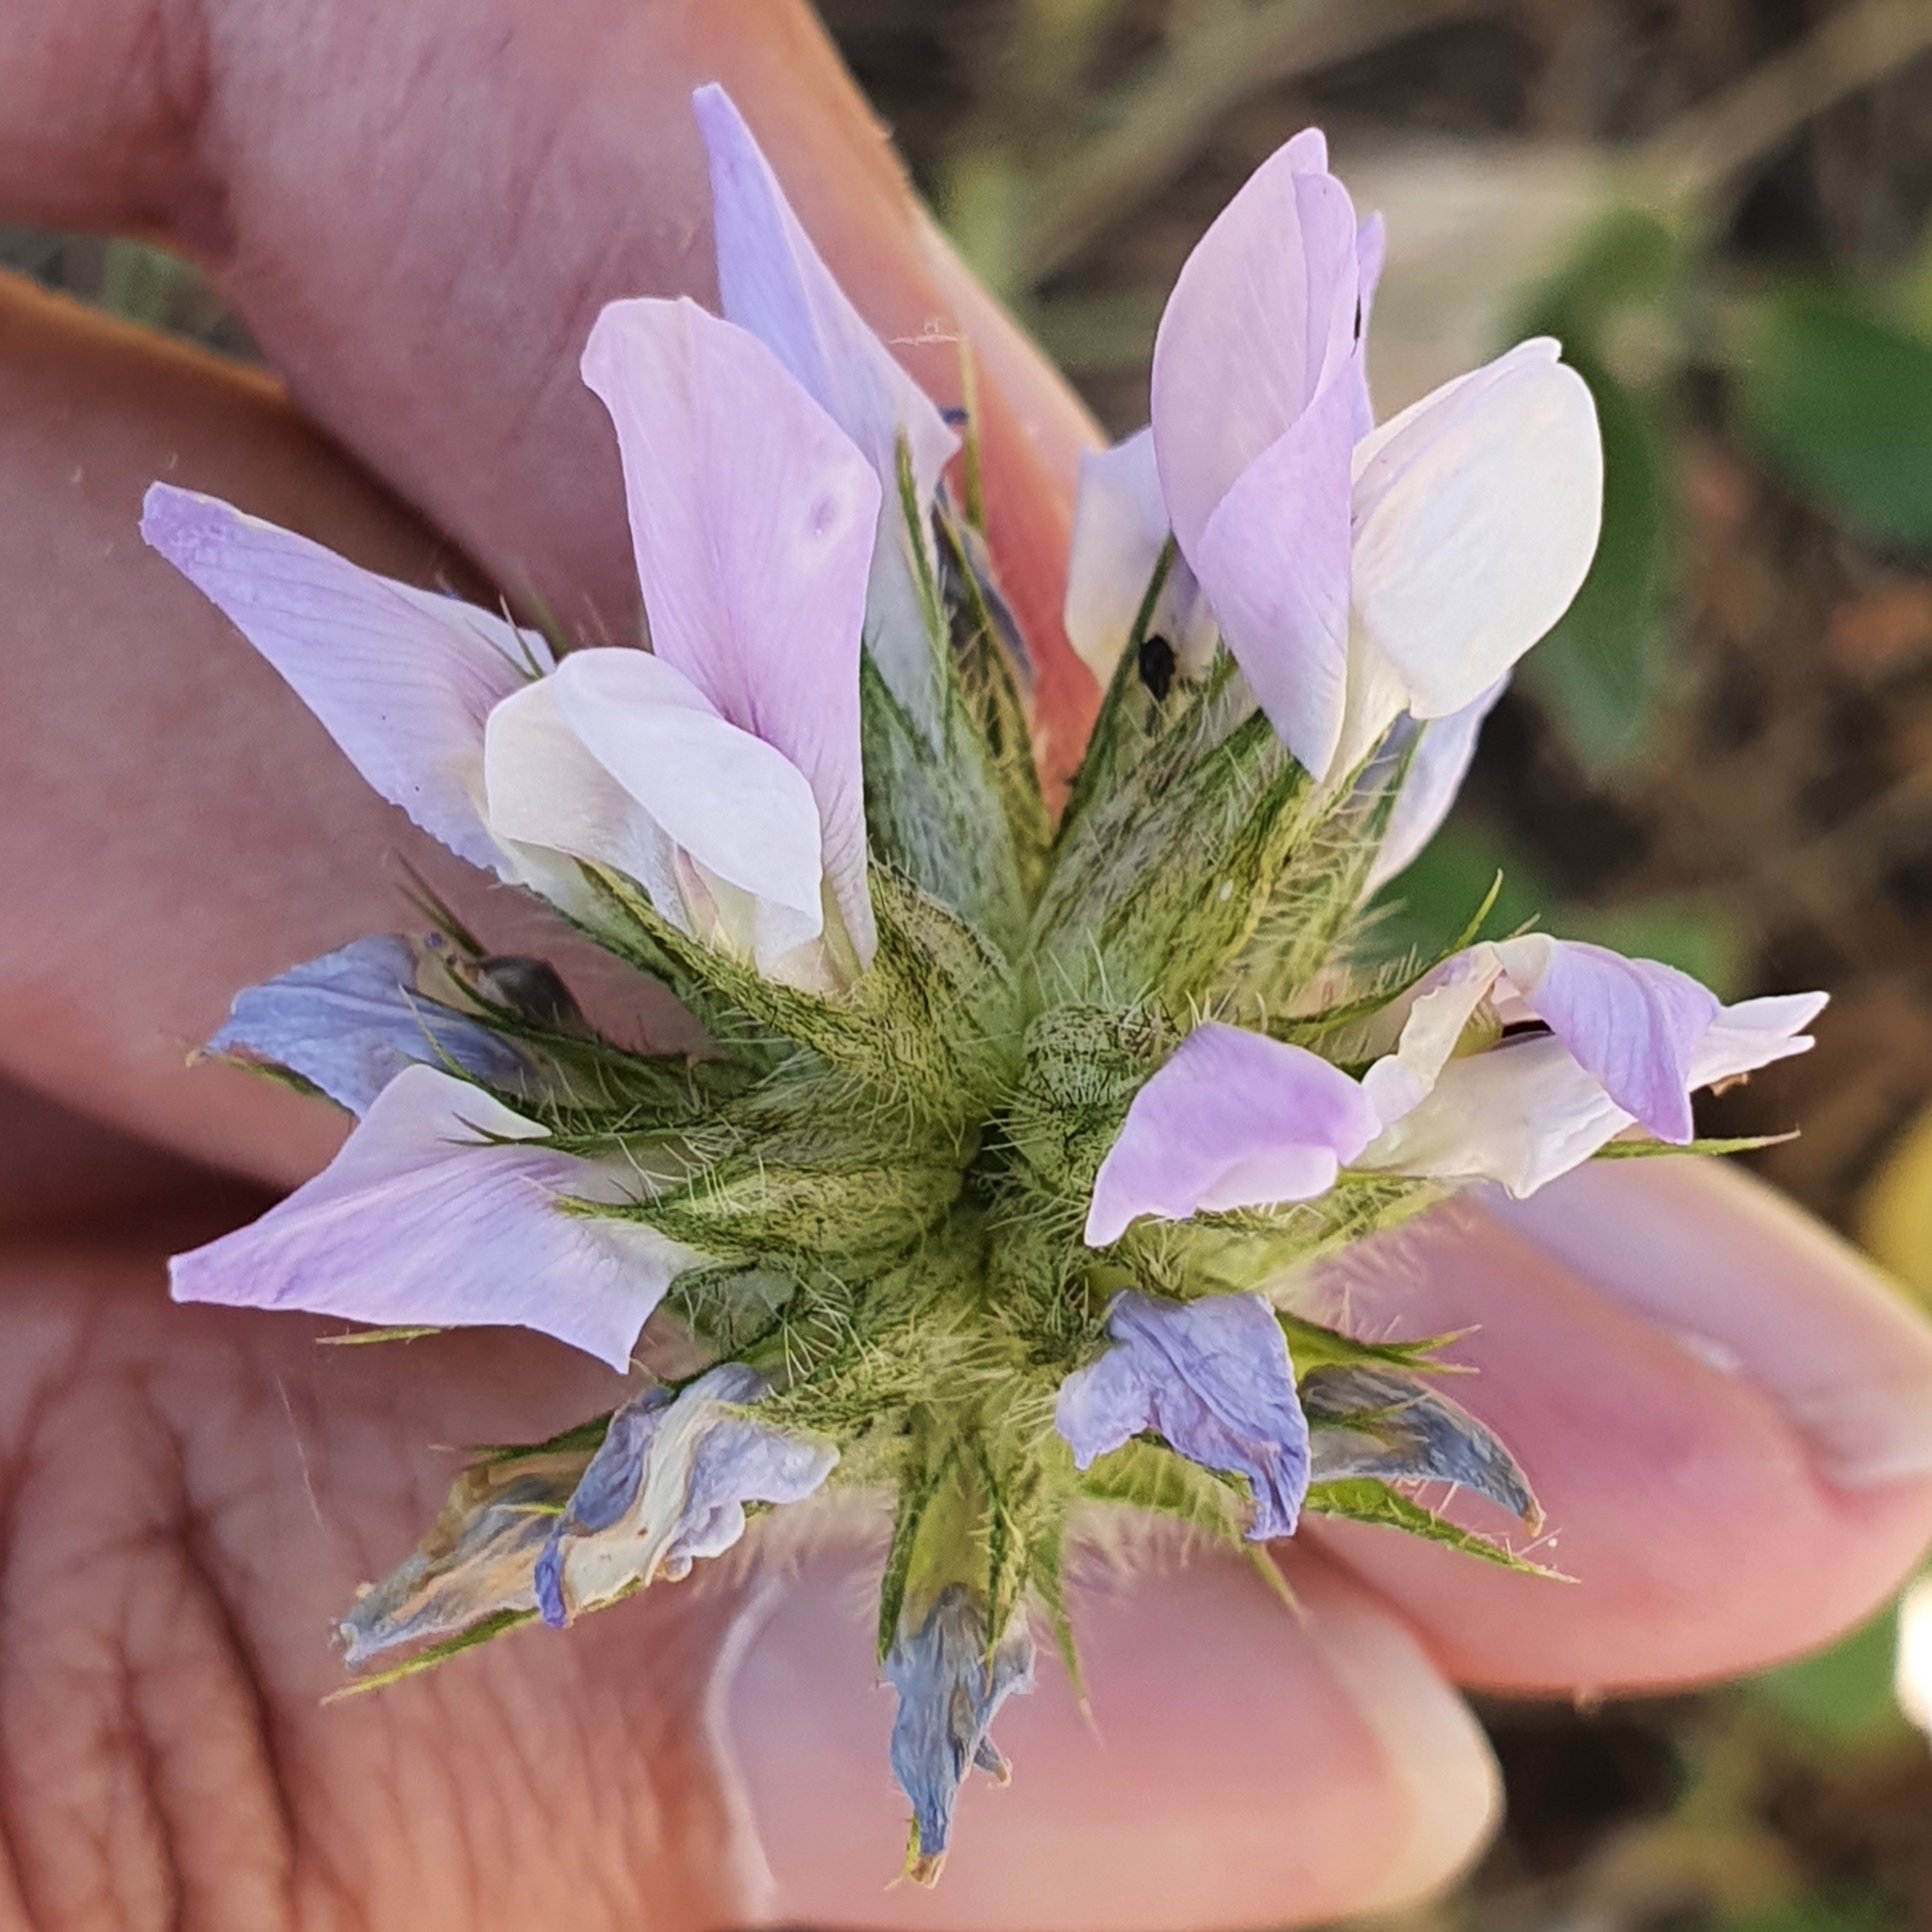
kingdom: Plantae
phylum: Tracheophyta
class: Magnoliopsida
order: Fabales
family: Fabaceae
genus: Bituminaria
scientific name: Bituminaria bituminosa
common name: Arabian pea
